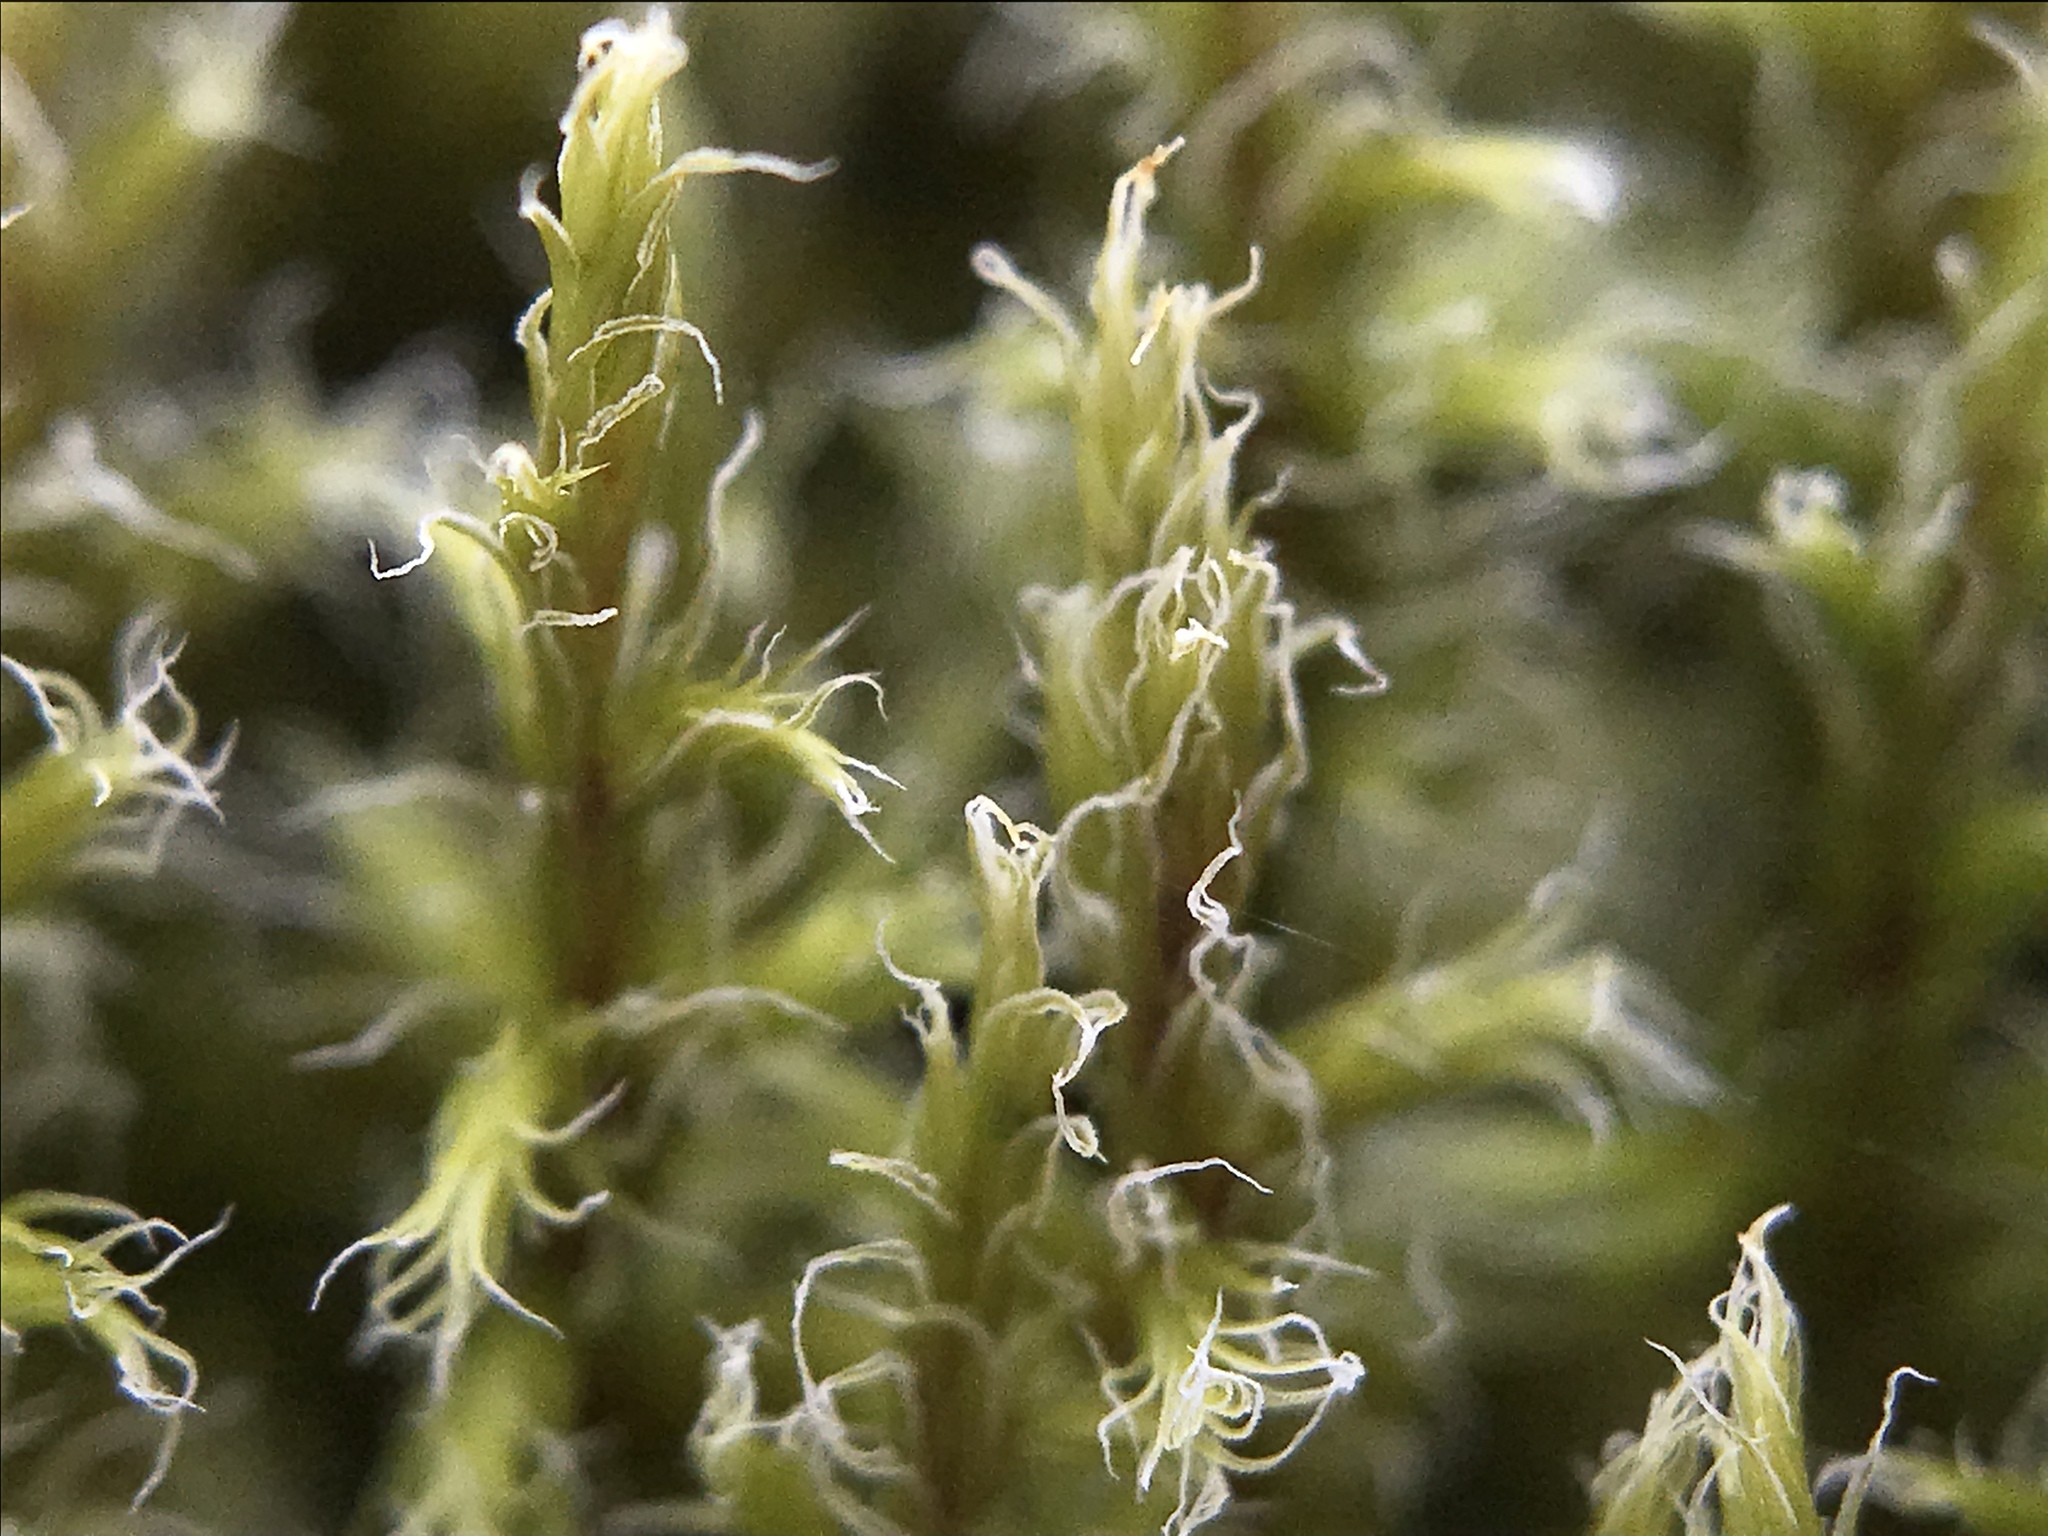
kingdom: Plantae
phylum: Bryophyta
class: Bryopsida
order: Grimmiales
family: Grimmiaceae
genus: Racomitrium
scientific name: Racomitrium lanuginosum
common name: Hoary rock moss
